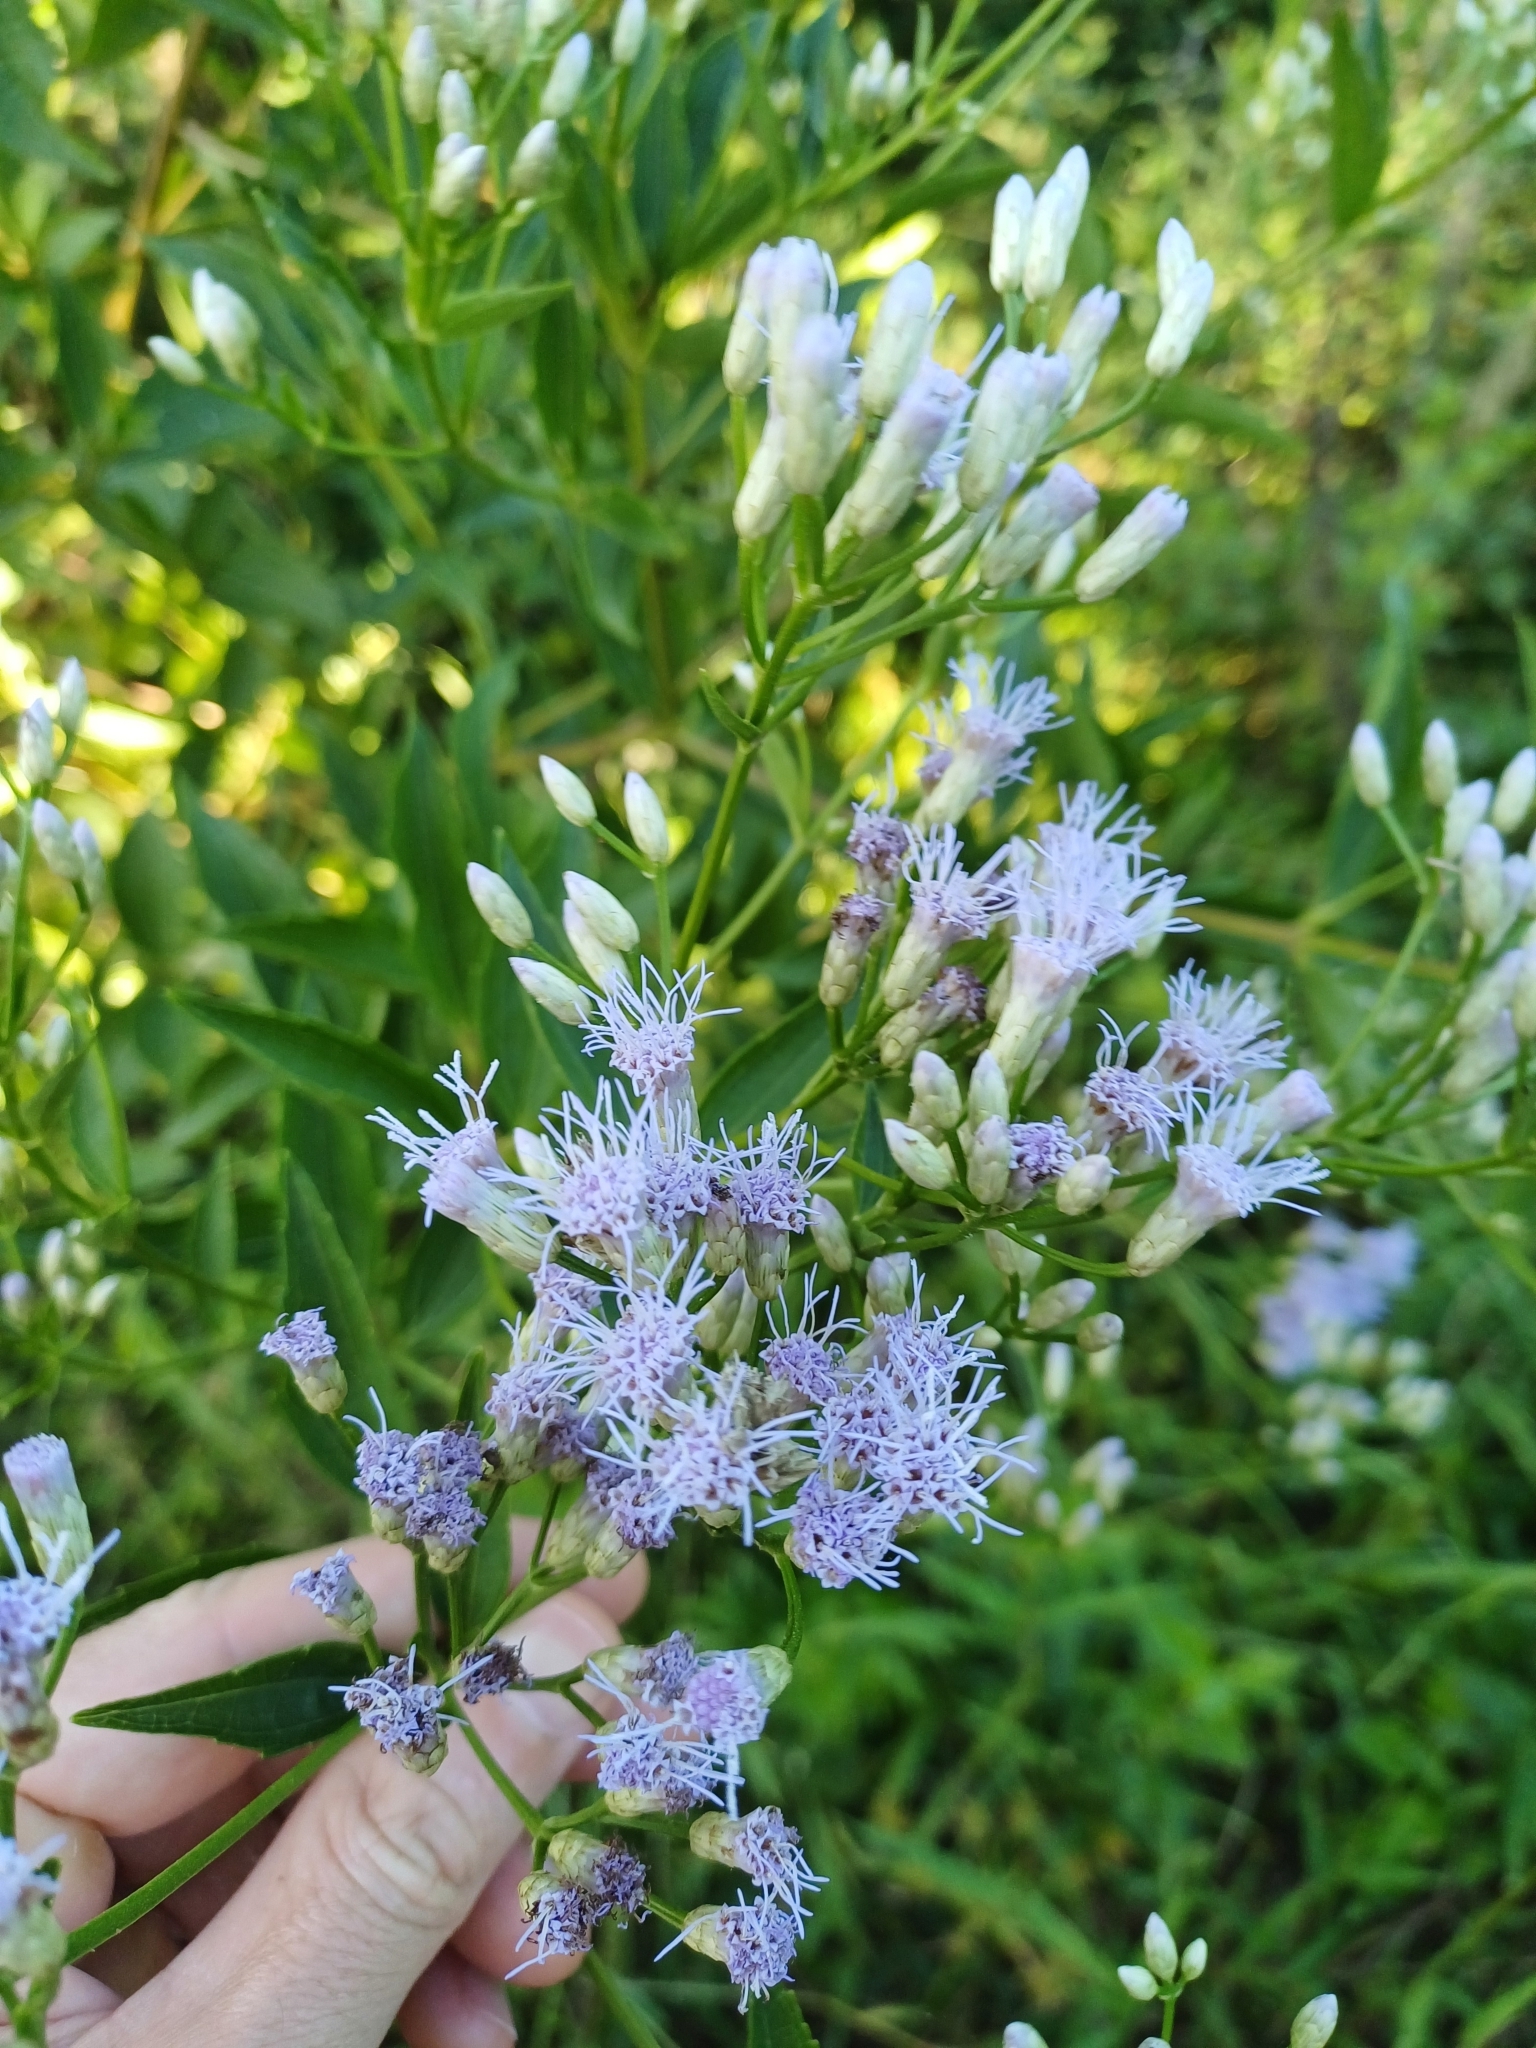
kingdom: Plantae
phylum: Tracheophyta
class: Magnoliopsida
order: Asterales
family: Asteraceae
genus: Chromolaena
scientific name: Chromolaena laevigata
